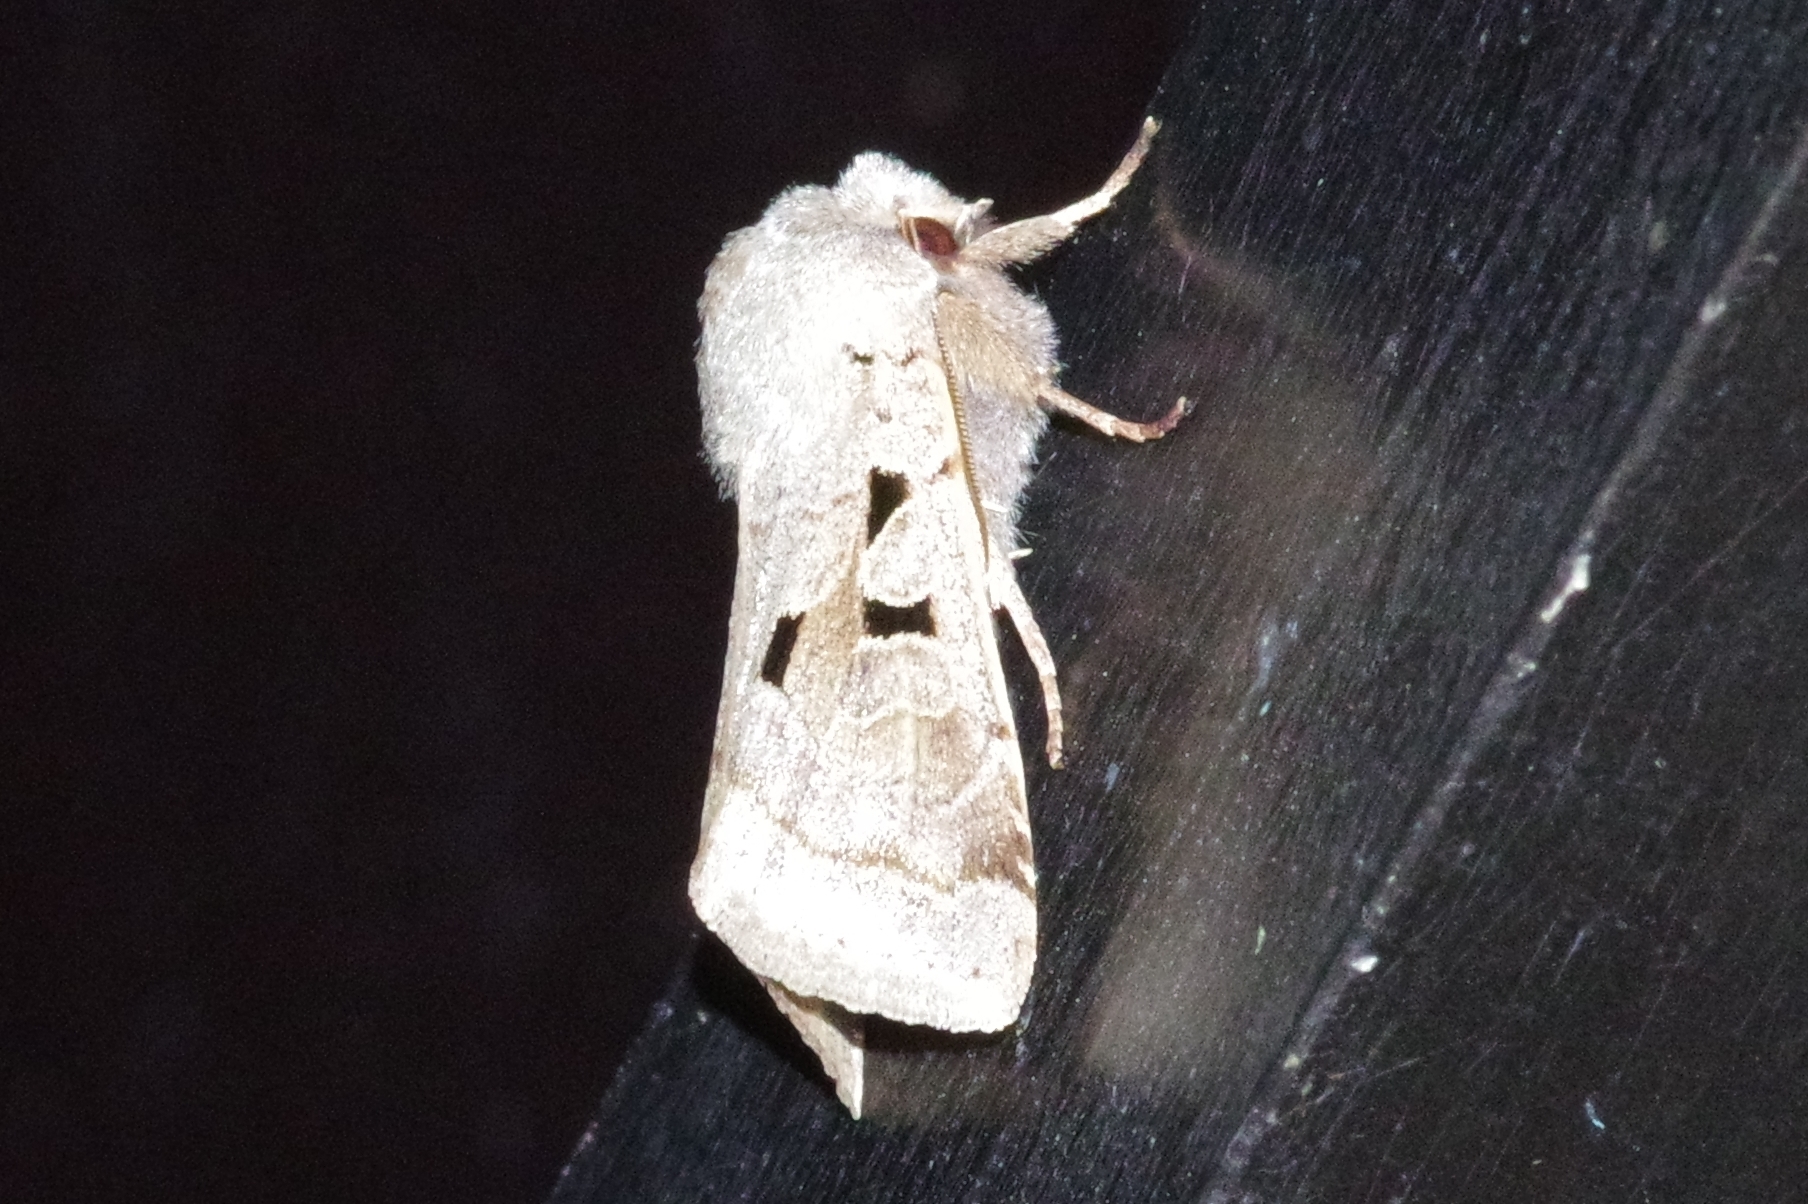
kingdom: Animalia
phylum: Arthropoda
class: Insecta
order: Lepidoptera
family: Noctuidae
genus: Orthosia
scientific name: Orthosia gothica
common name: Hebrew character
